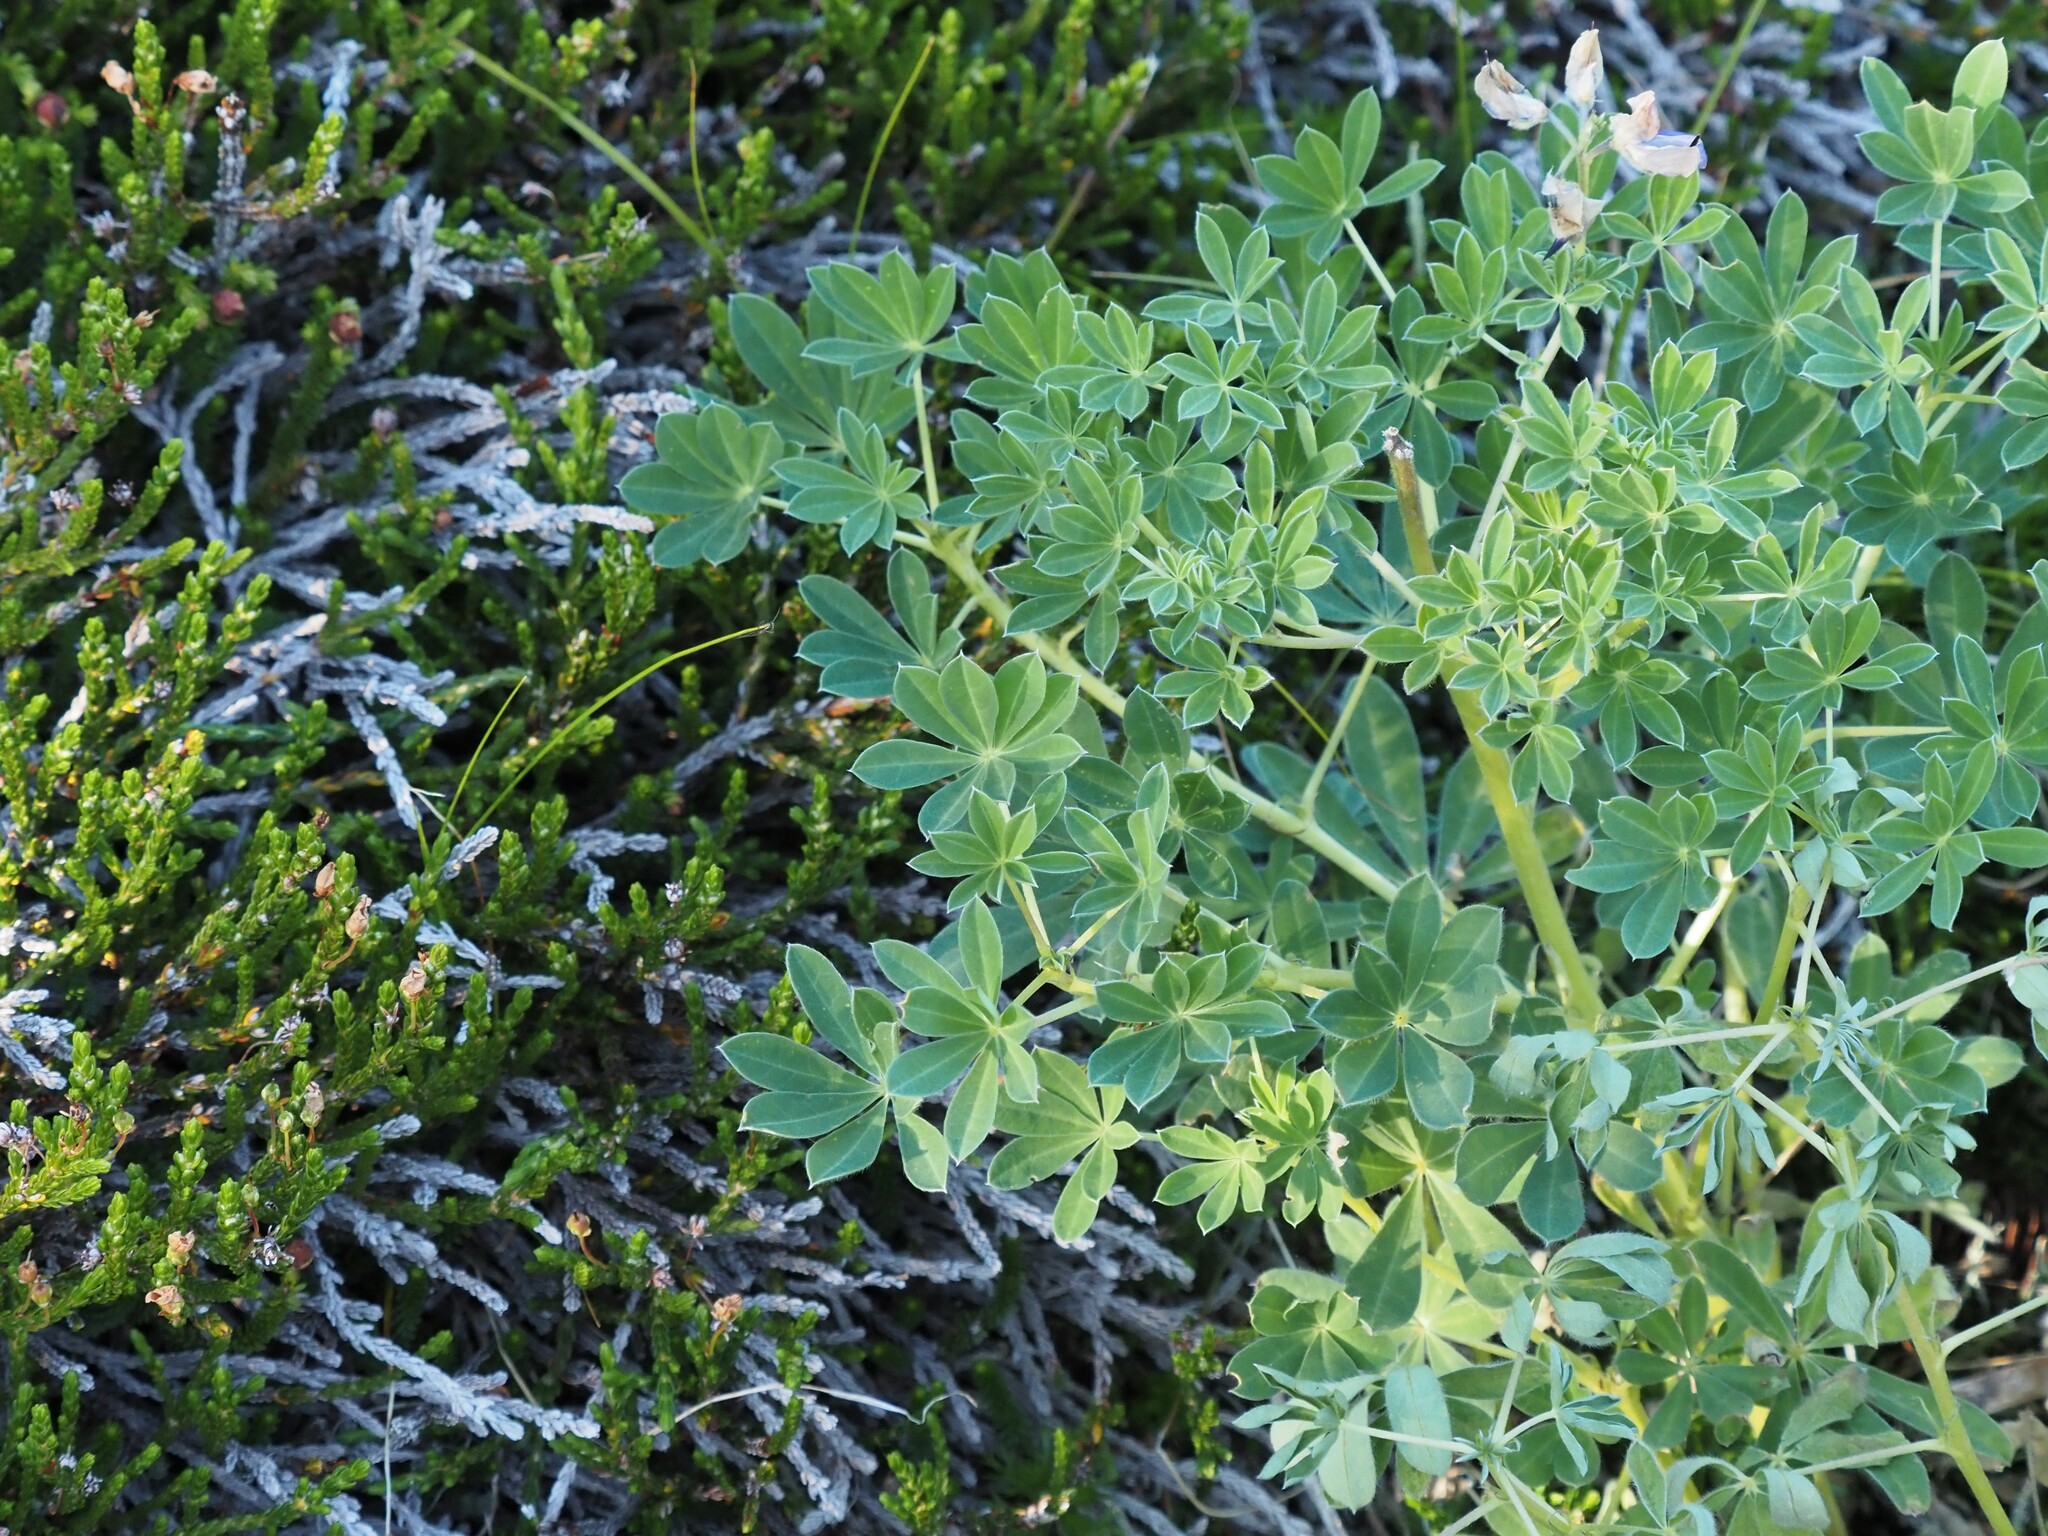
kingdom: Plantae
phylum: Tracheophyta
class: Magnoliopsida
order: Fabales
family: Fabaceae
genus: Lupinus
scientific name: Lupinus nootkatensis
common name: Nootka lupine
